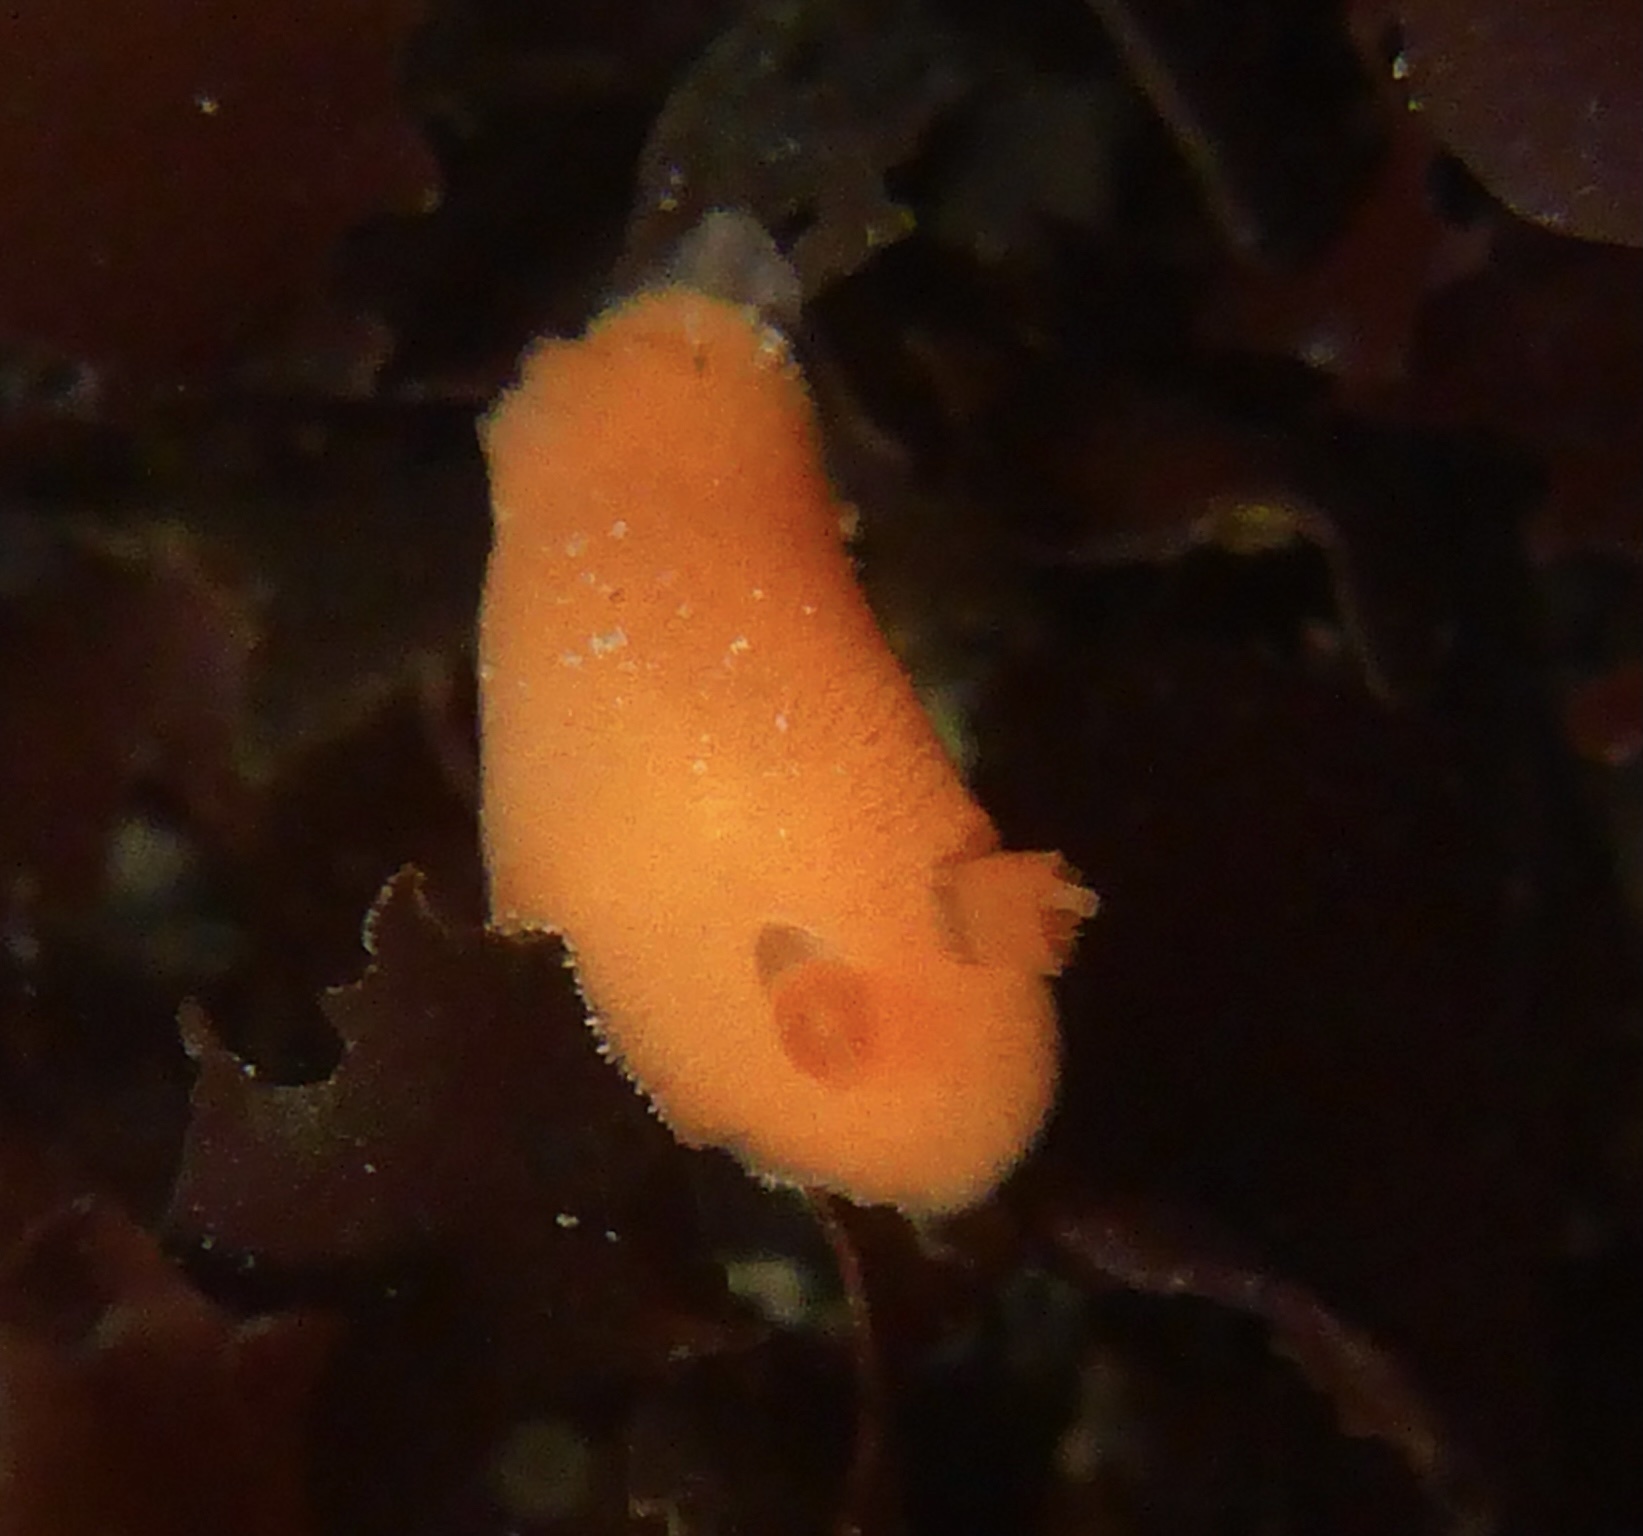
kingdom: Animalia
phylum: Mollusca
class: Gastropoda
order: Nudibranchia
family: Discodorididae
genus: Rostanga
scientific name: Rostanga pulchra
